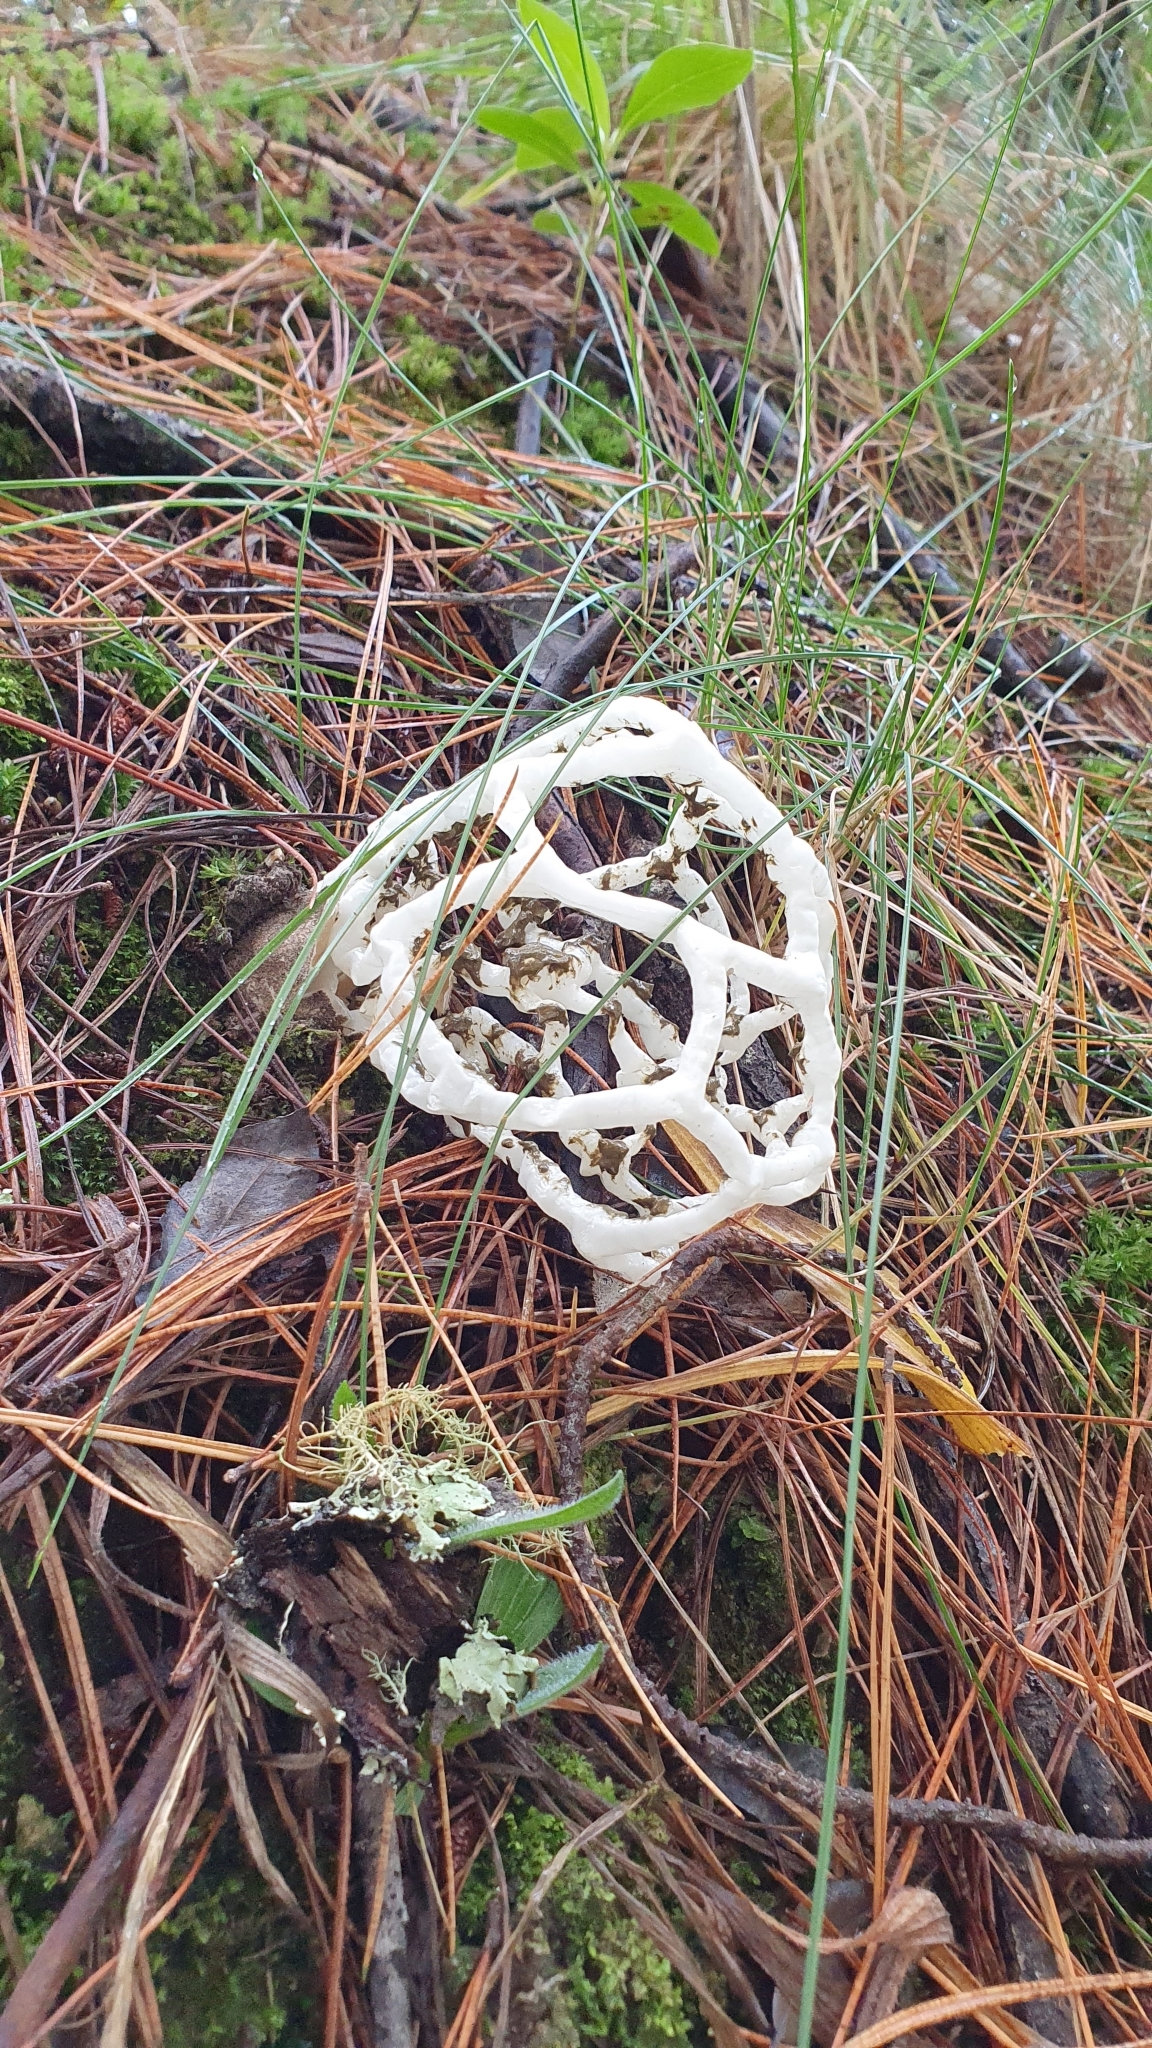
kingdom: Fungi
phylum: Basidiomycota
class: Agaricomycetes
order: Phallales
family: Phallaceae
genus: Ileodictyon
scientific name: Ileodictyon cibarium
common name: Basket fungus
